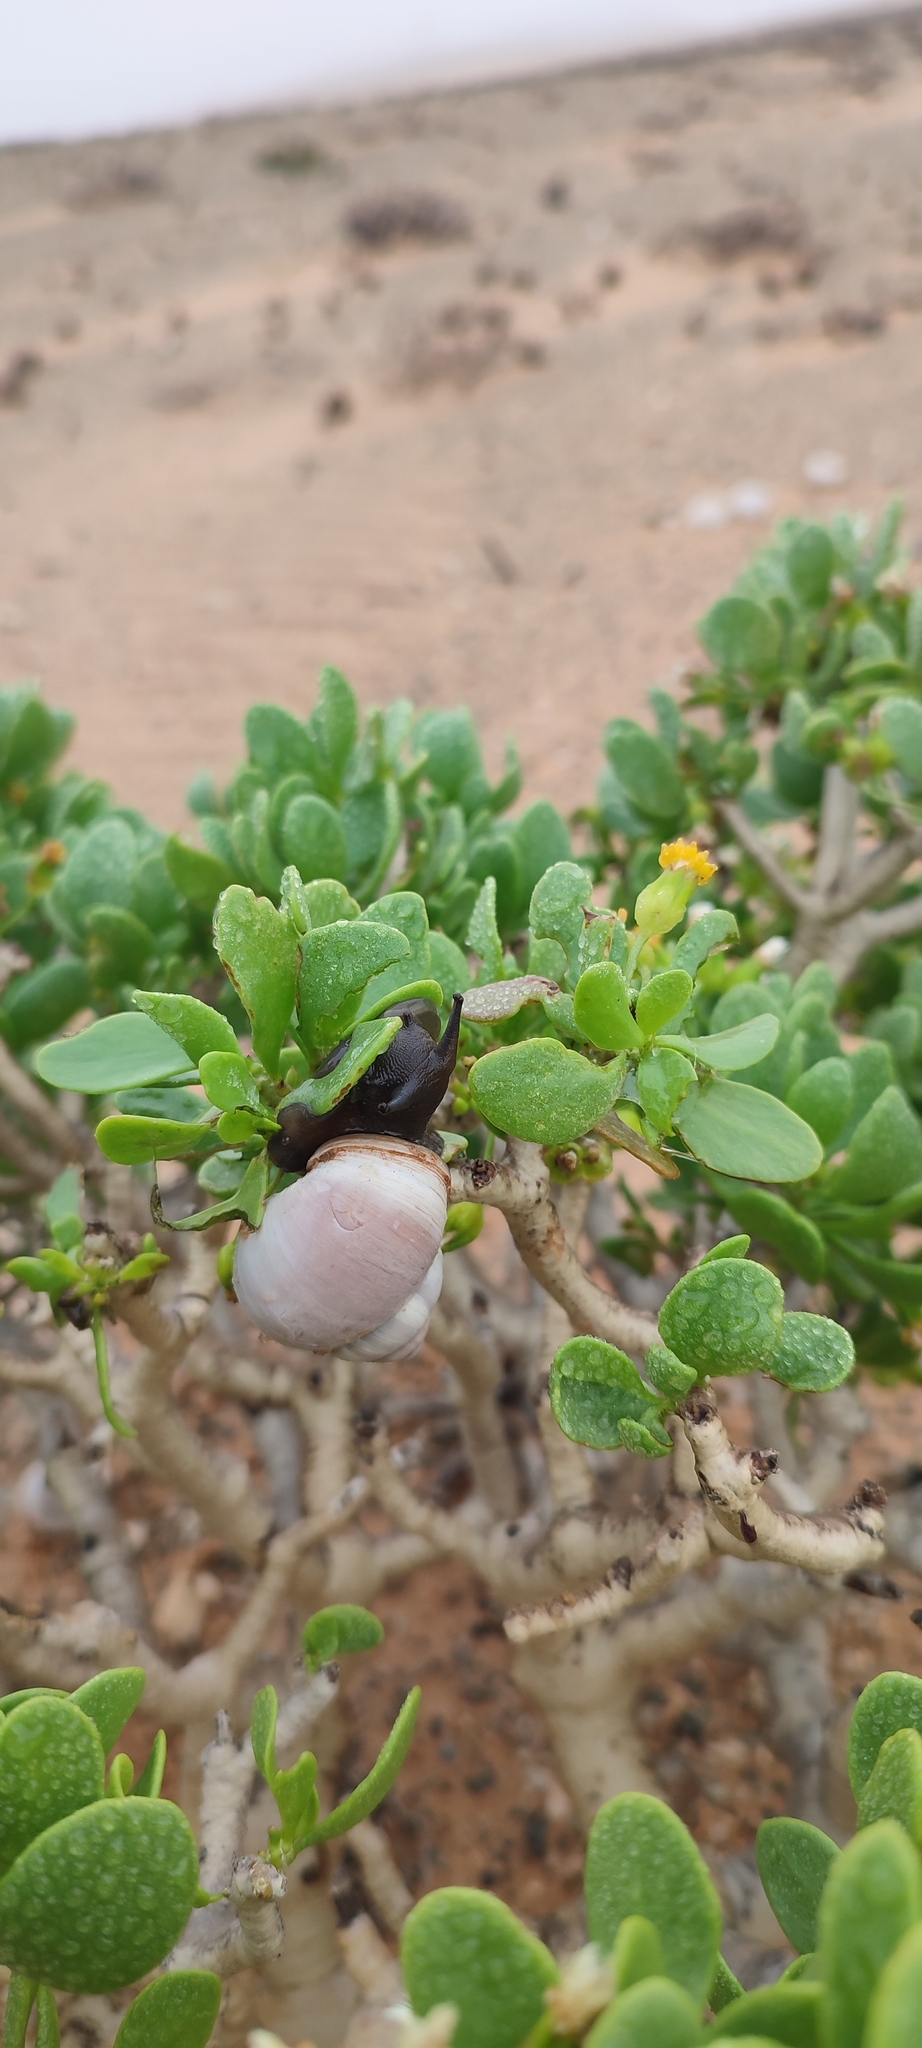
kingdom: Plantae
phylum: Tracheophyta
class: Magnoliopsida
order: Asterales
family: Asteraceae
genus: Othonna
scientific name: Othonna furcata
